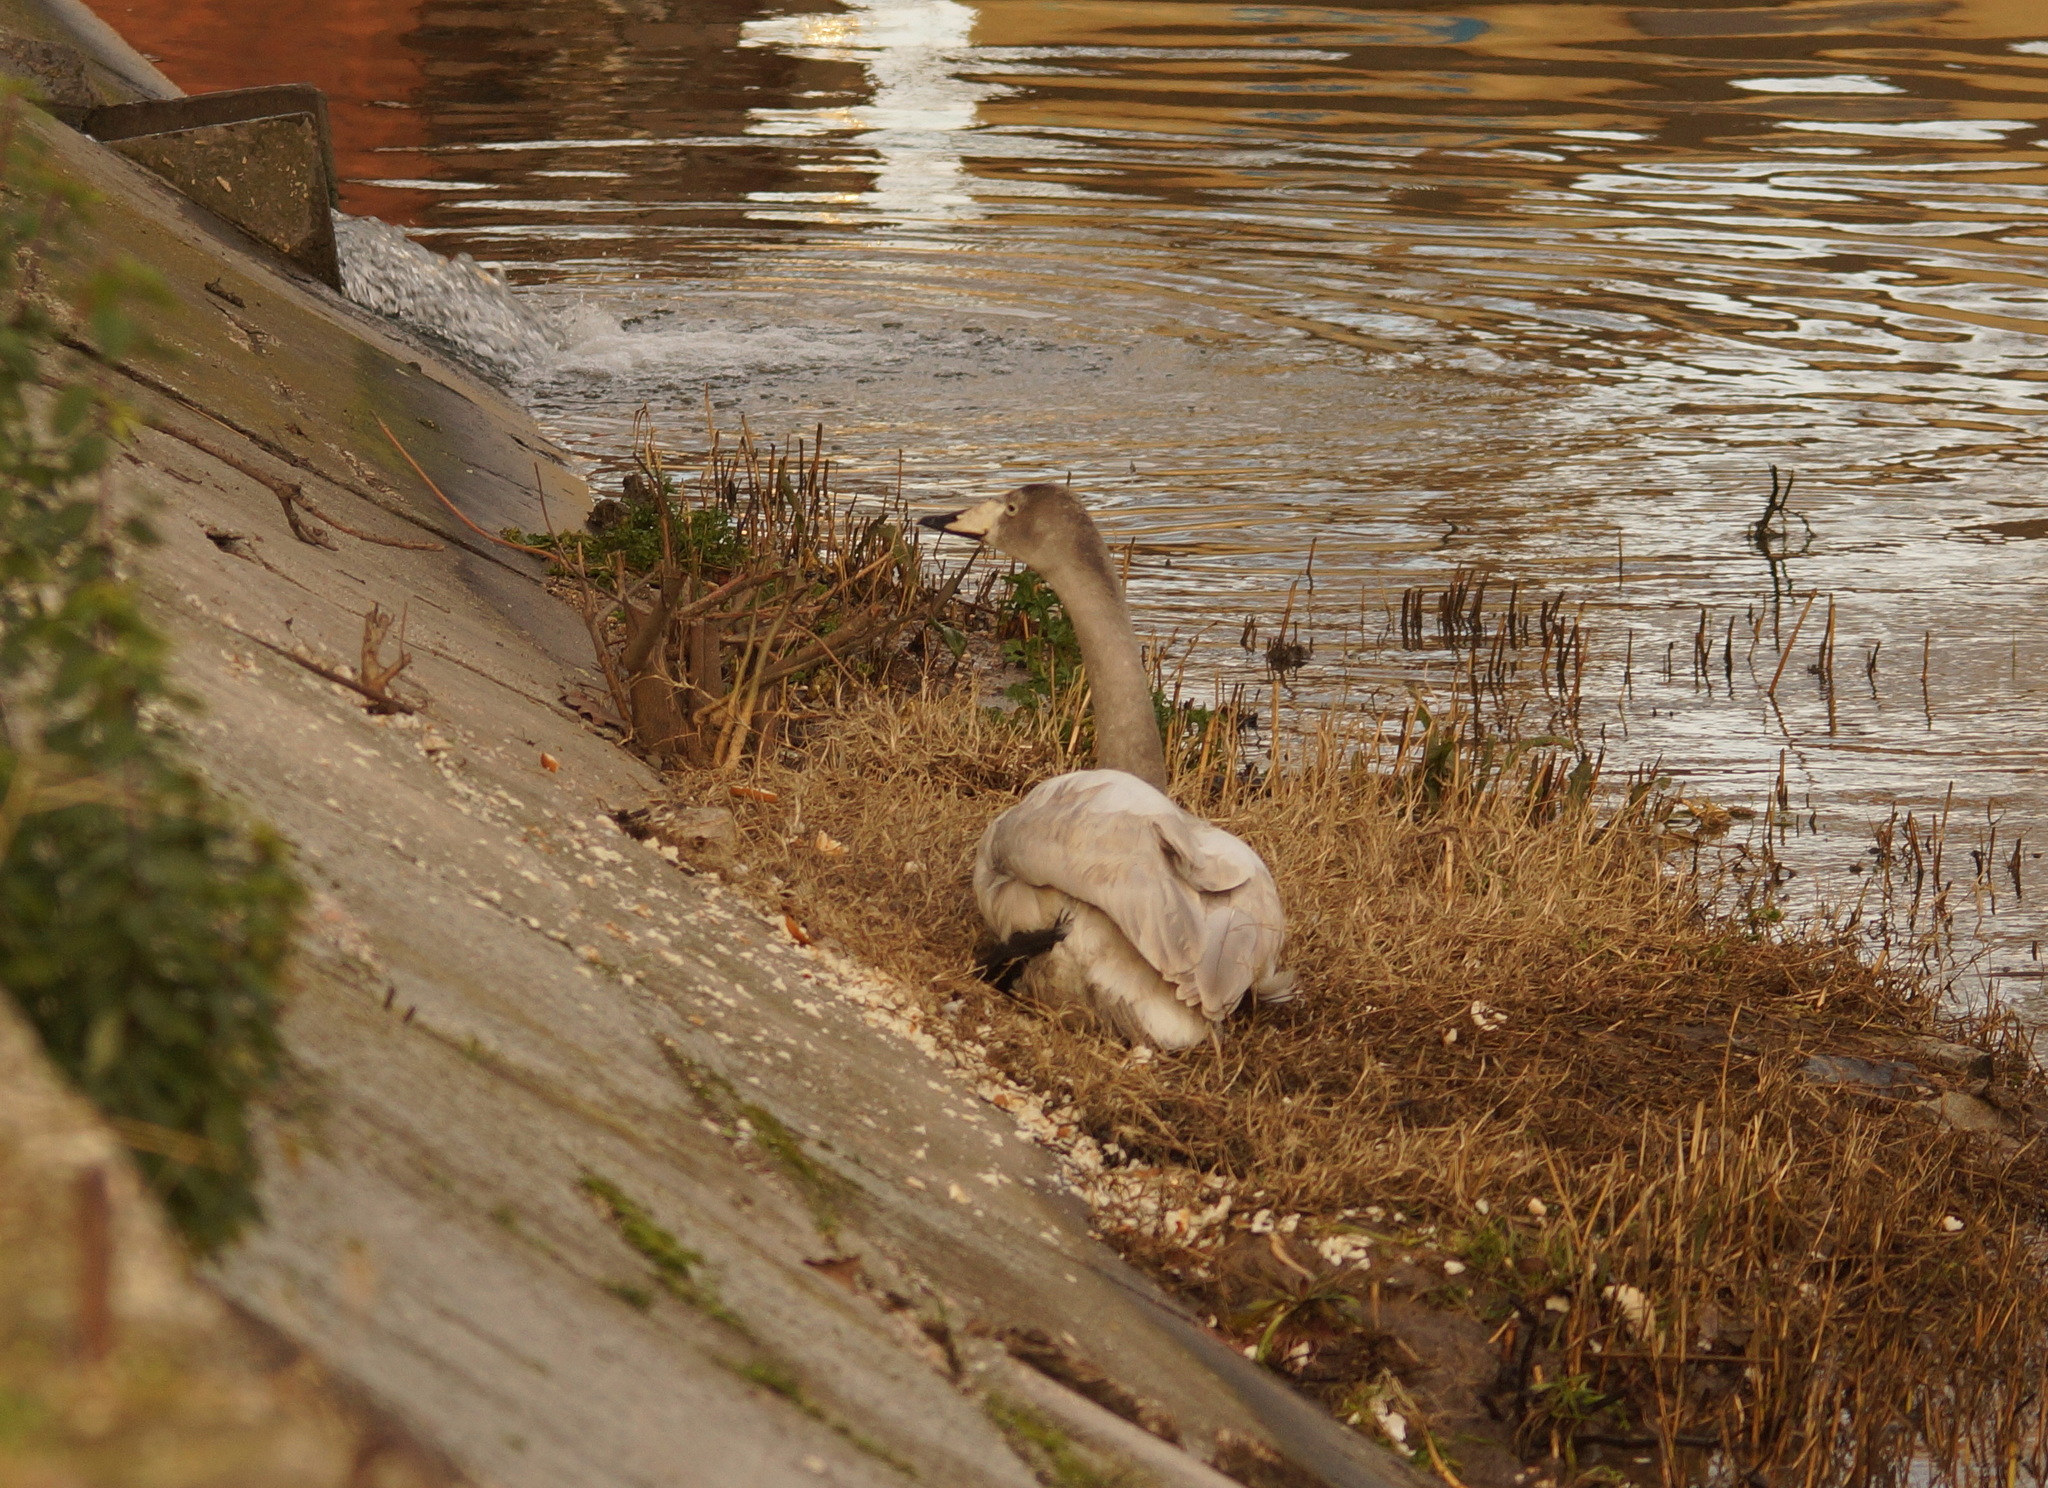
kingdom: Animalia
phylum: Chordata
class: Aves
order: Anseriformes
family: Anatidae
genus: Cygnus
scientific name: Cygnus cygnus
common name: Whooper swan
